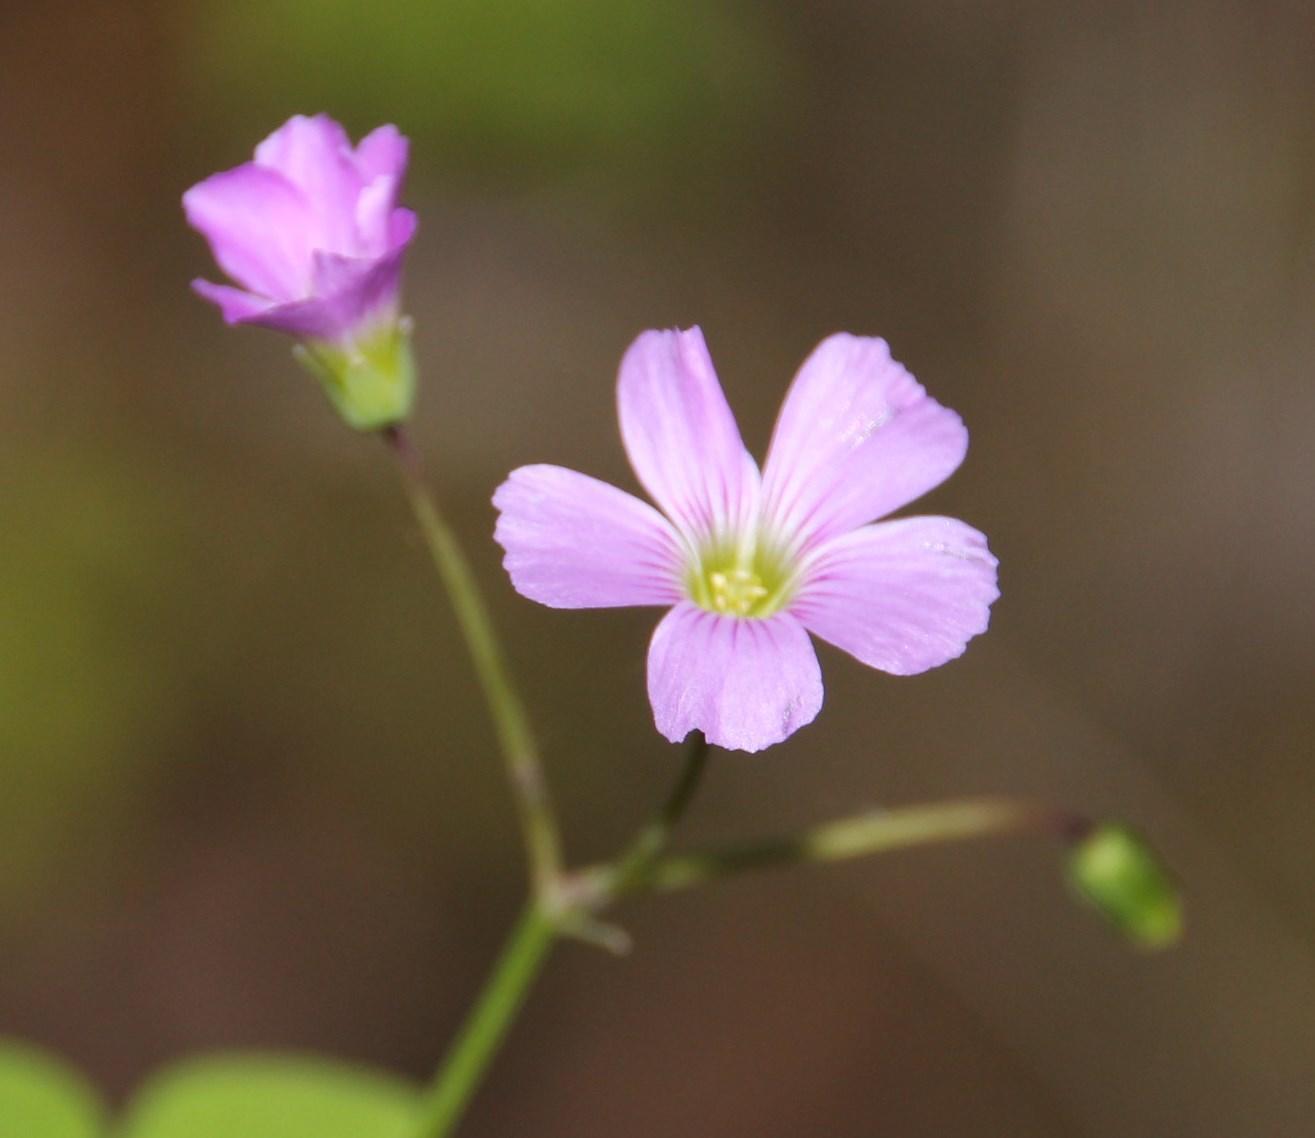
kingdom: Plantae
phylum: Tracheophyta
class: Magnoliopsida
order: Oxalidales
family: Oxalidaceae
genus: Oxalis
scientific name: Oxalis rosea
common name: Annual pink-sorrel
